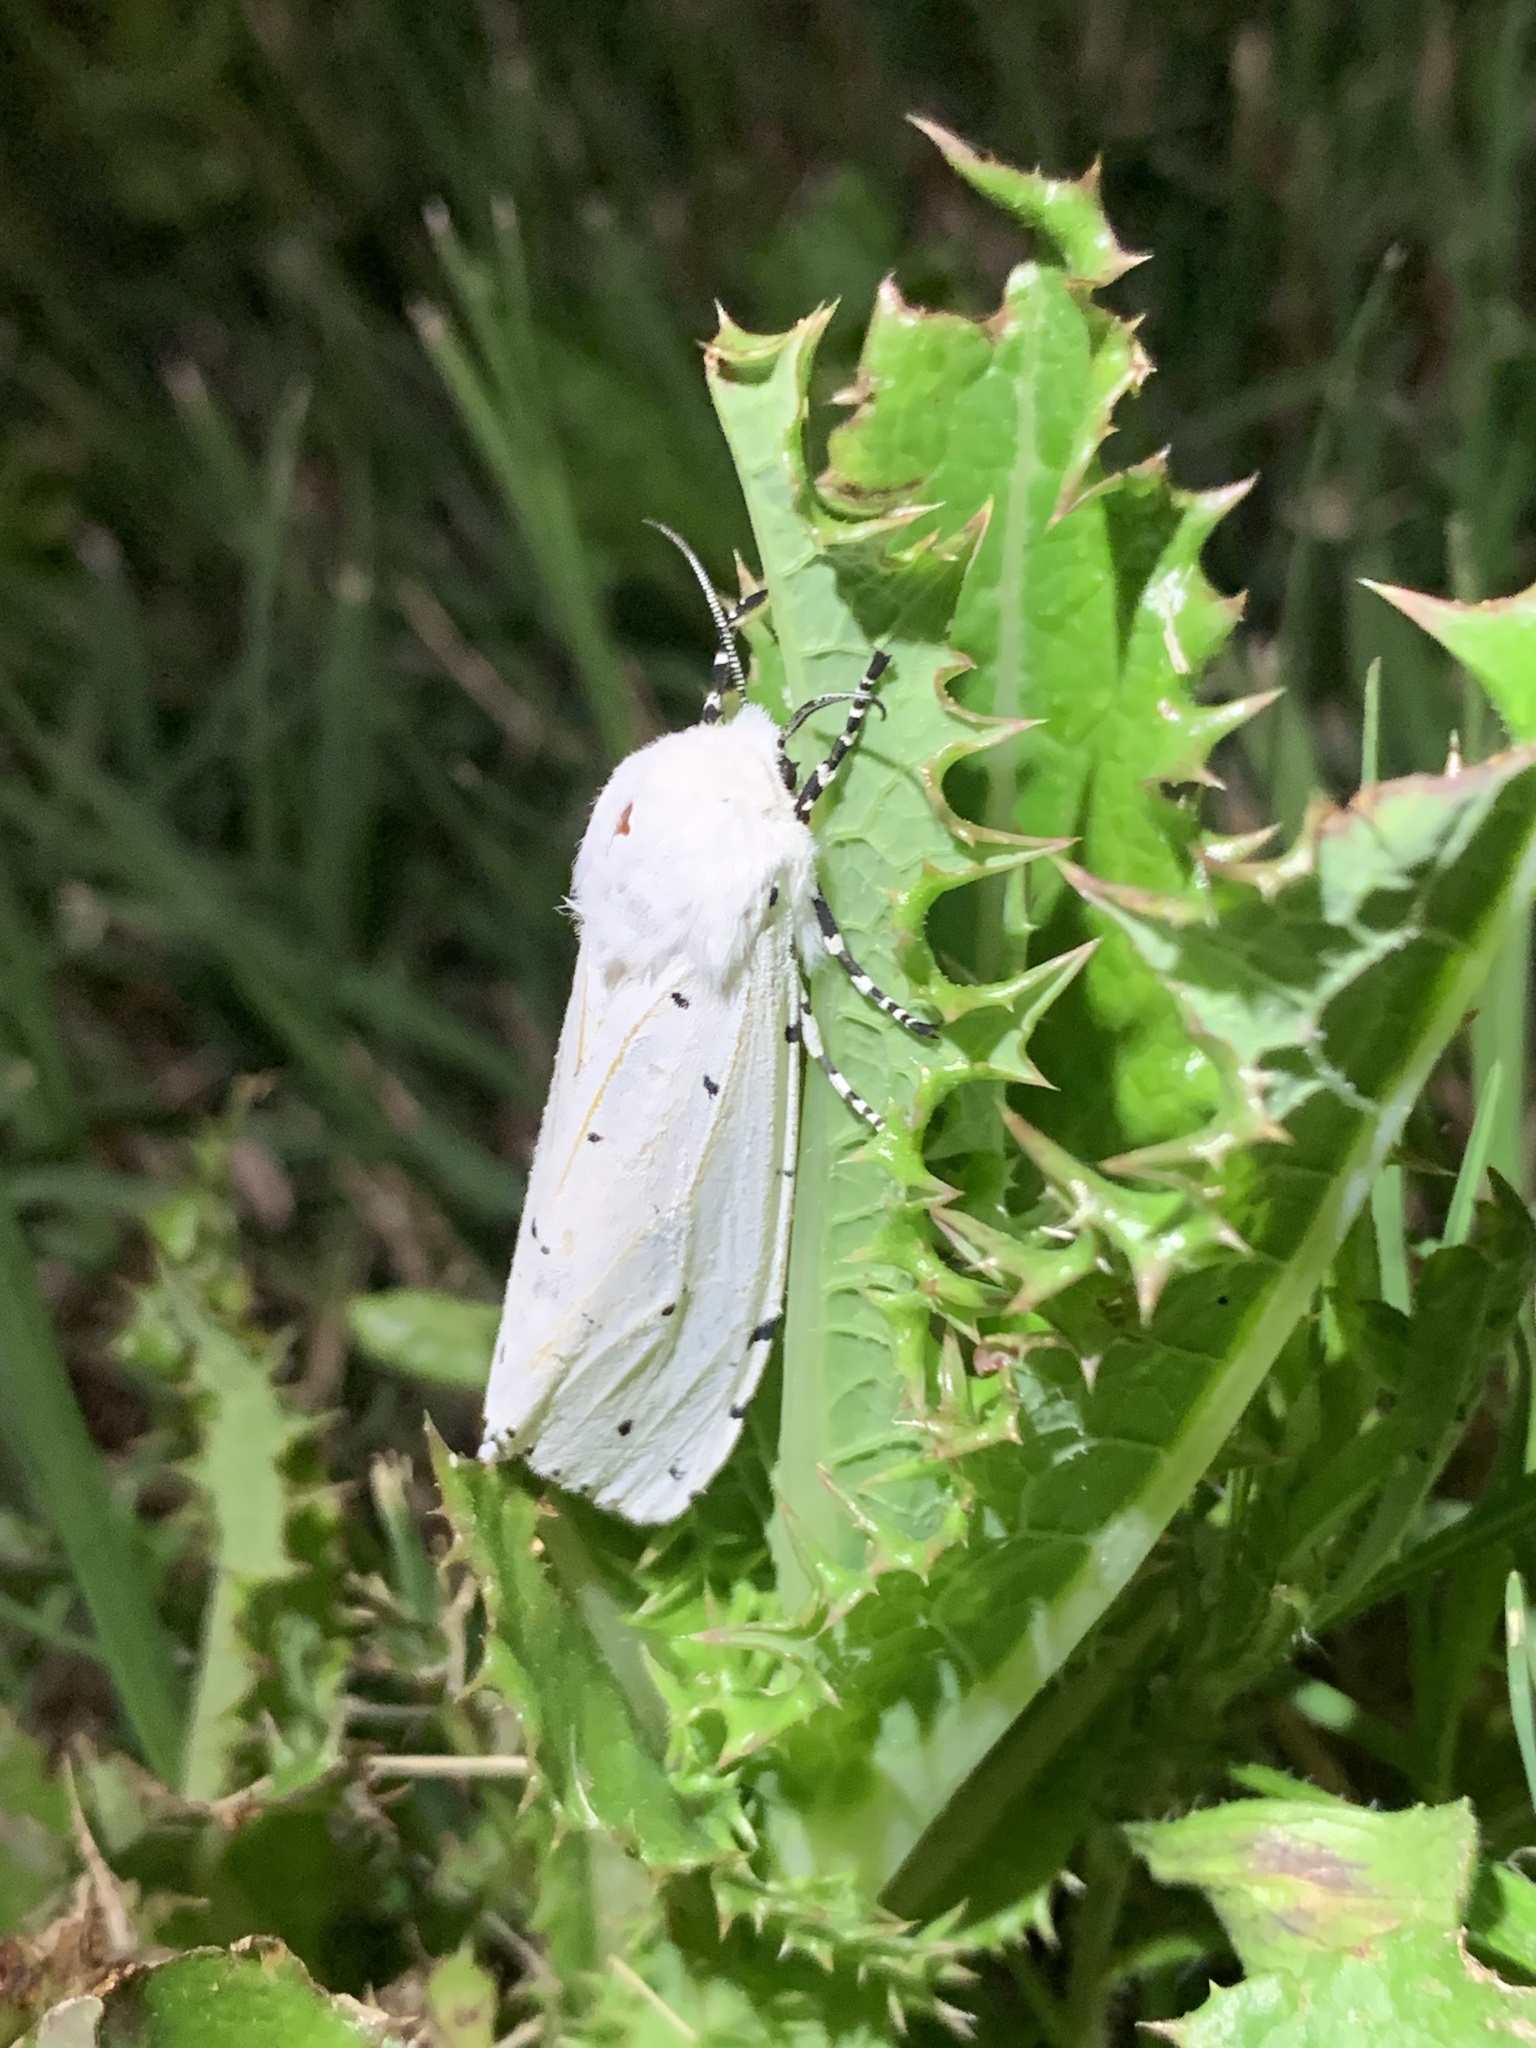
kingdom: Animalia
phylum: Arthropoda
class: Insecta
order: Lepidoptera
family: Erebidae
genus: Estigmene
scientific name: Estigmene acrea
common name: Salt marsh moth
